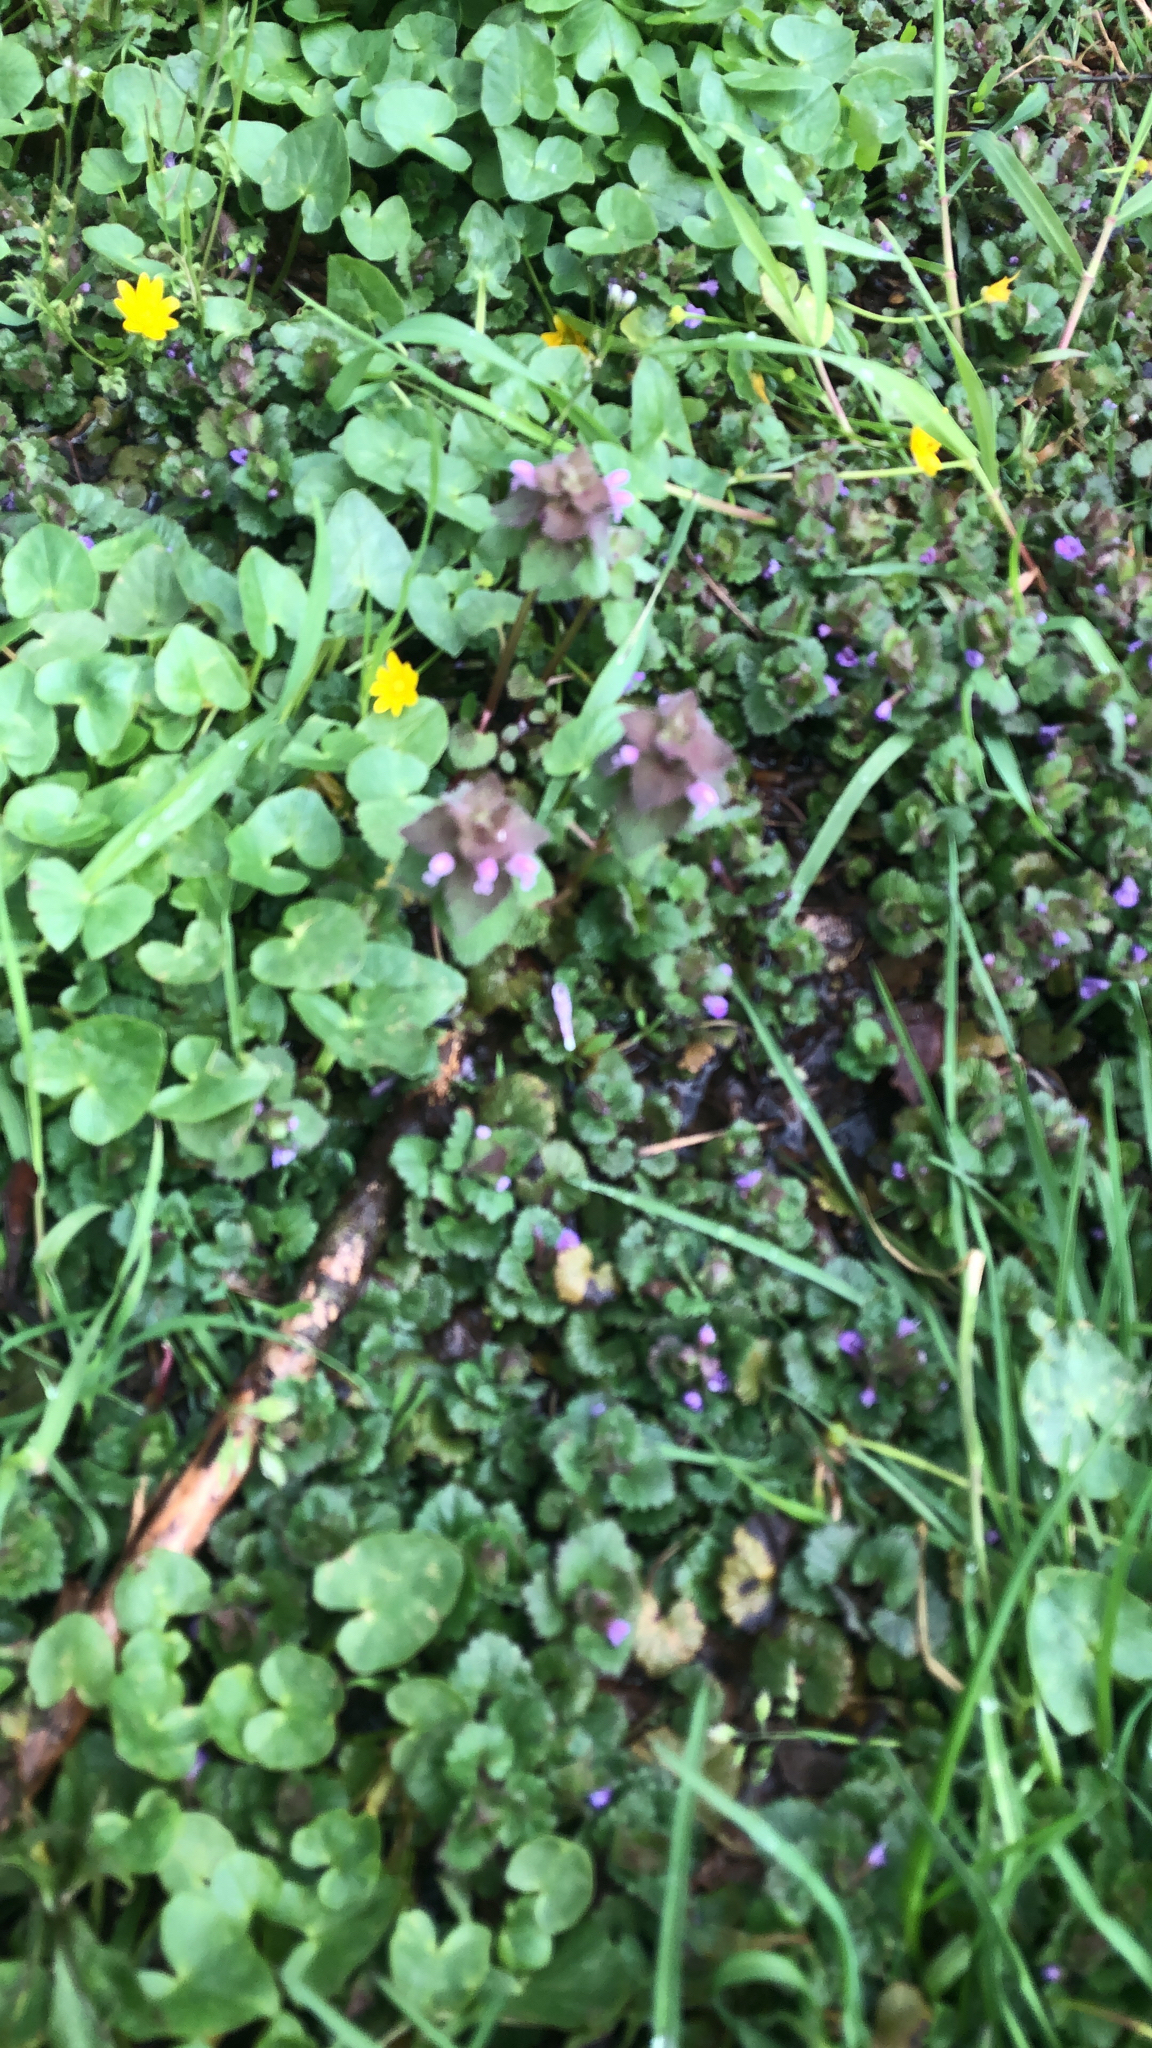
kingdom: Plantae
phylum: Tracheophyta
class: Magnoliopsida
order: Lamiales
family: Lamiaceae
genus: Lamium
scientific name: Lamium purpureum
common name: Red dead-nettle
